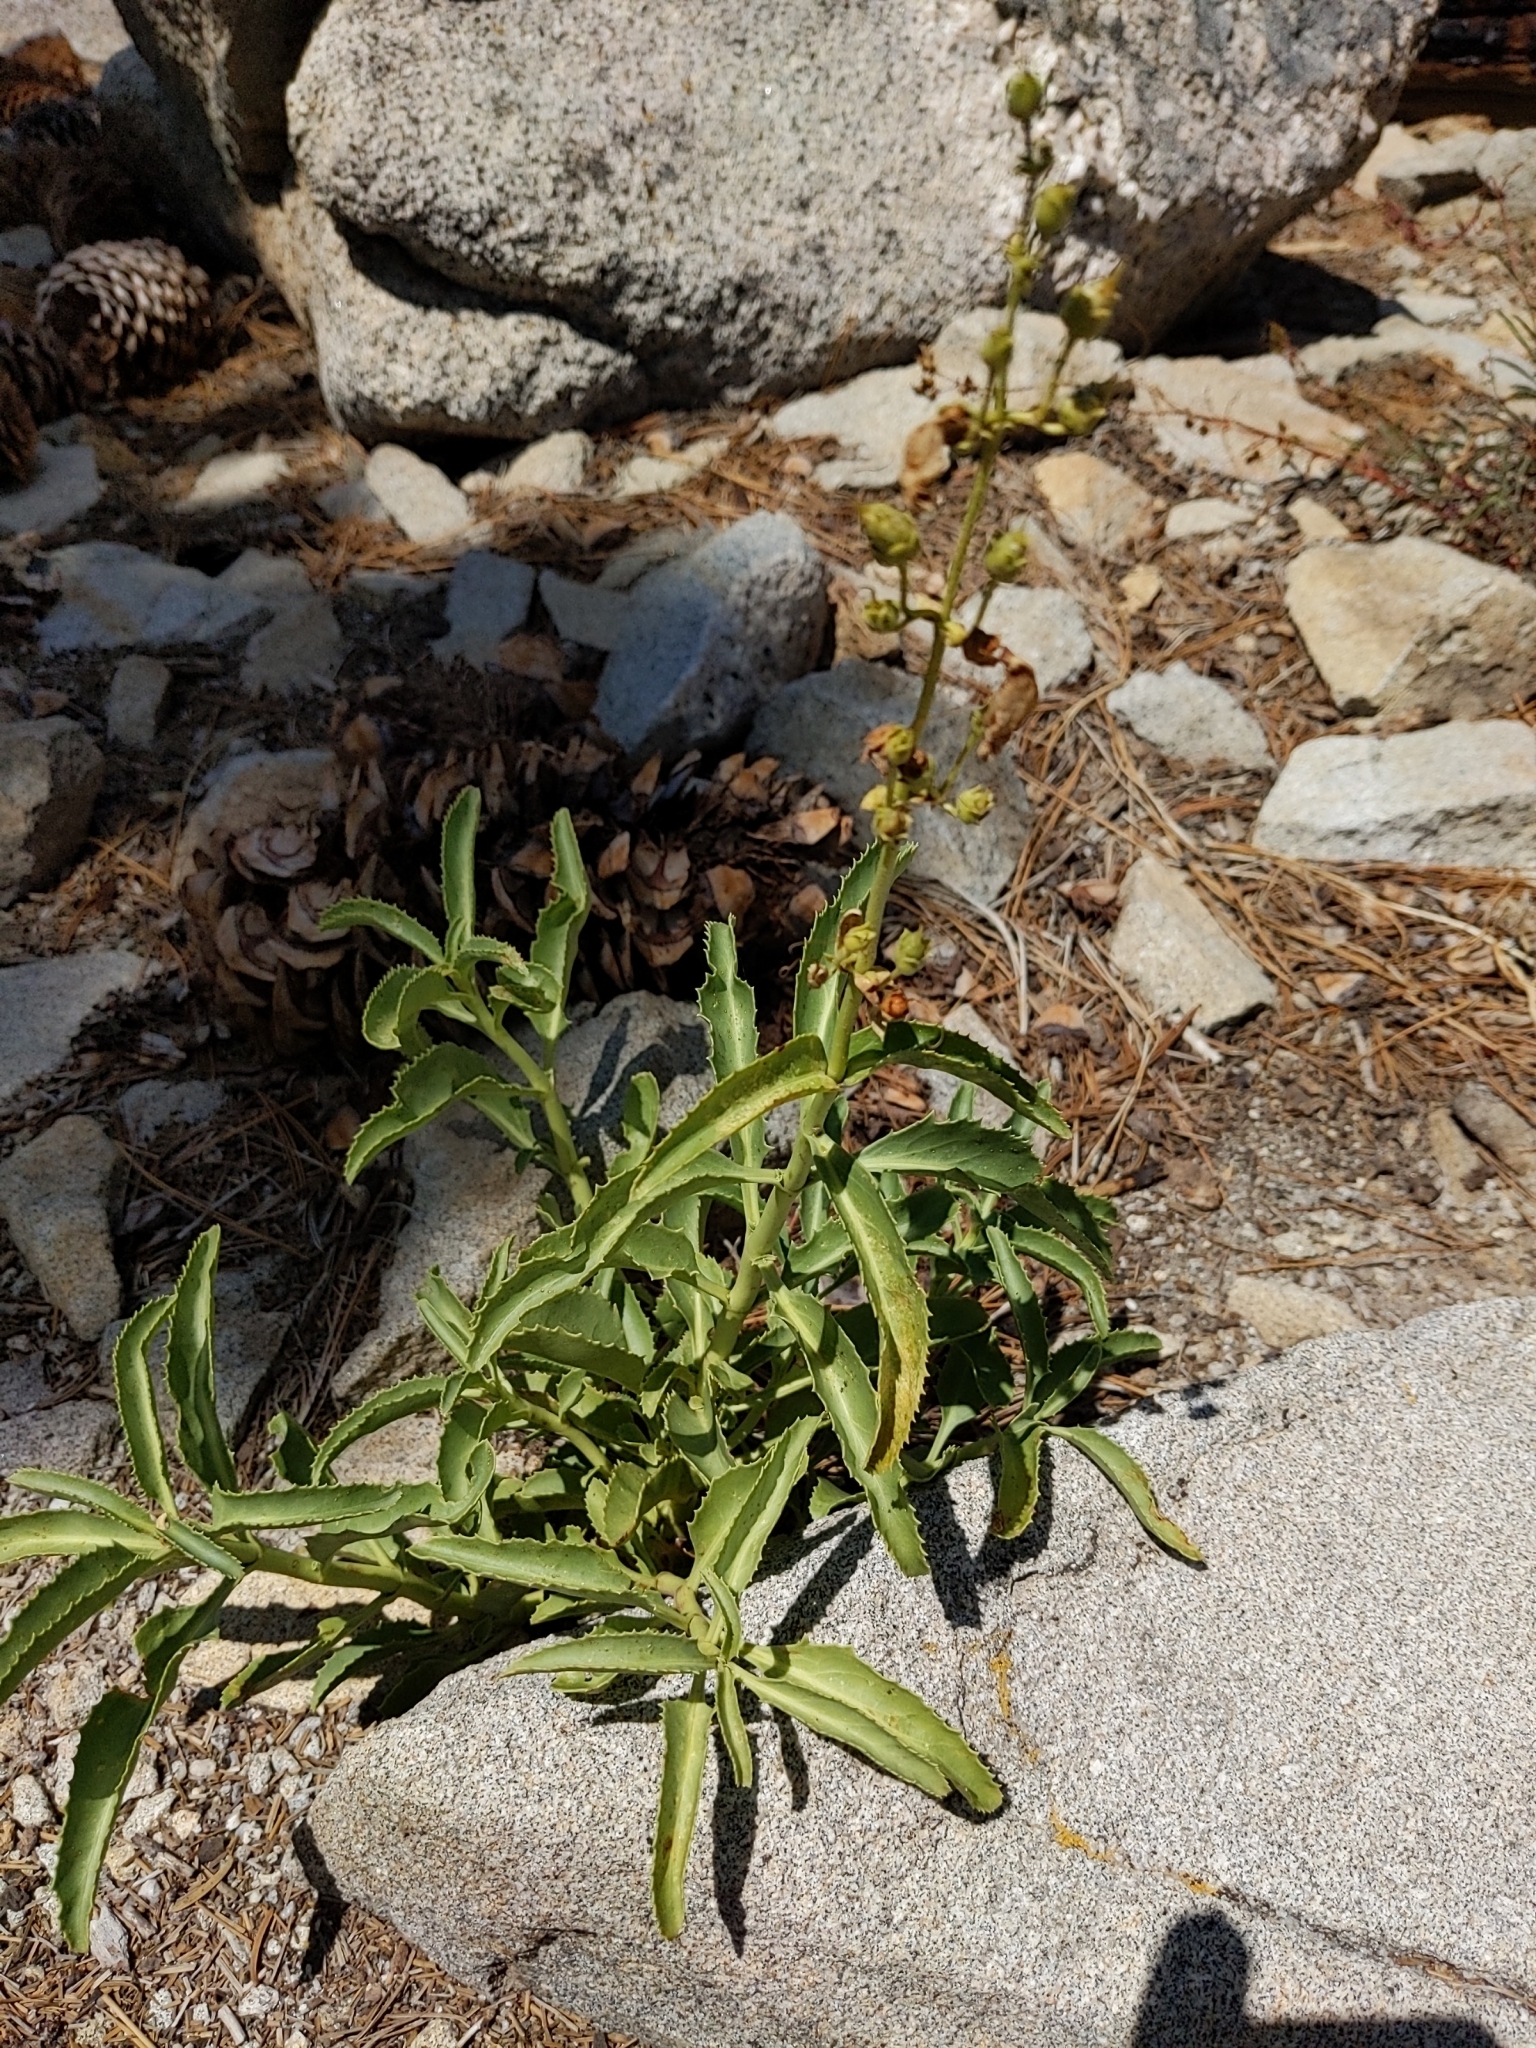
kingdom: Plantae
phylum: Tracheophyta
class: Magnoliopsida
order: Lamiales
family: Plantaginaceae
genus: Penstemon
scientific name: Penstemon grinnellii
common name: Grinnell's beardtongue
